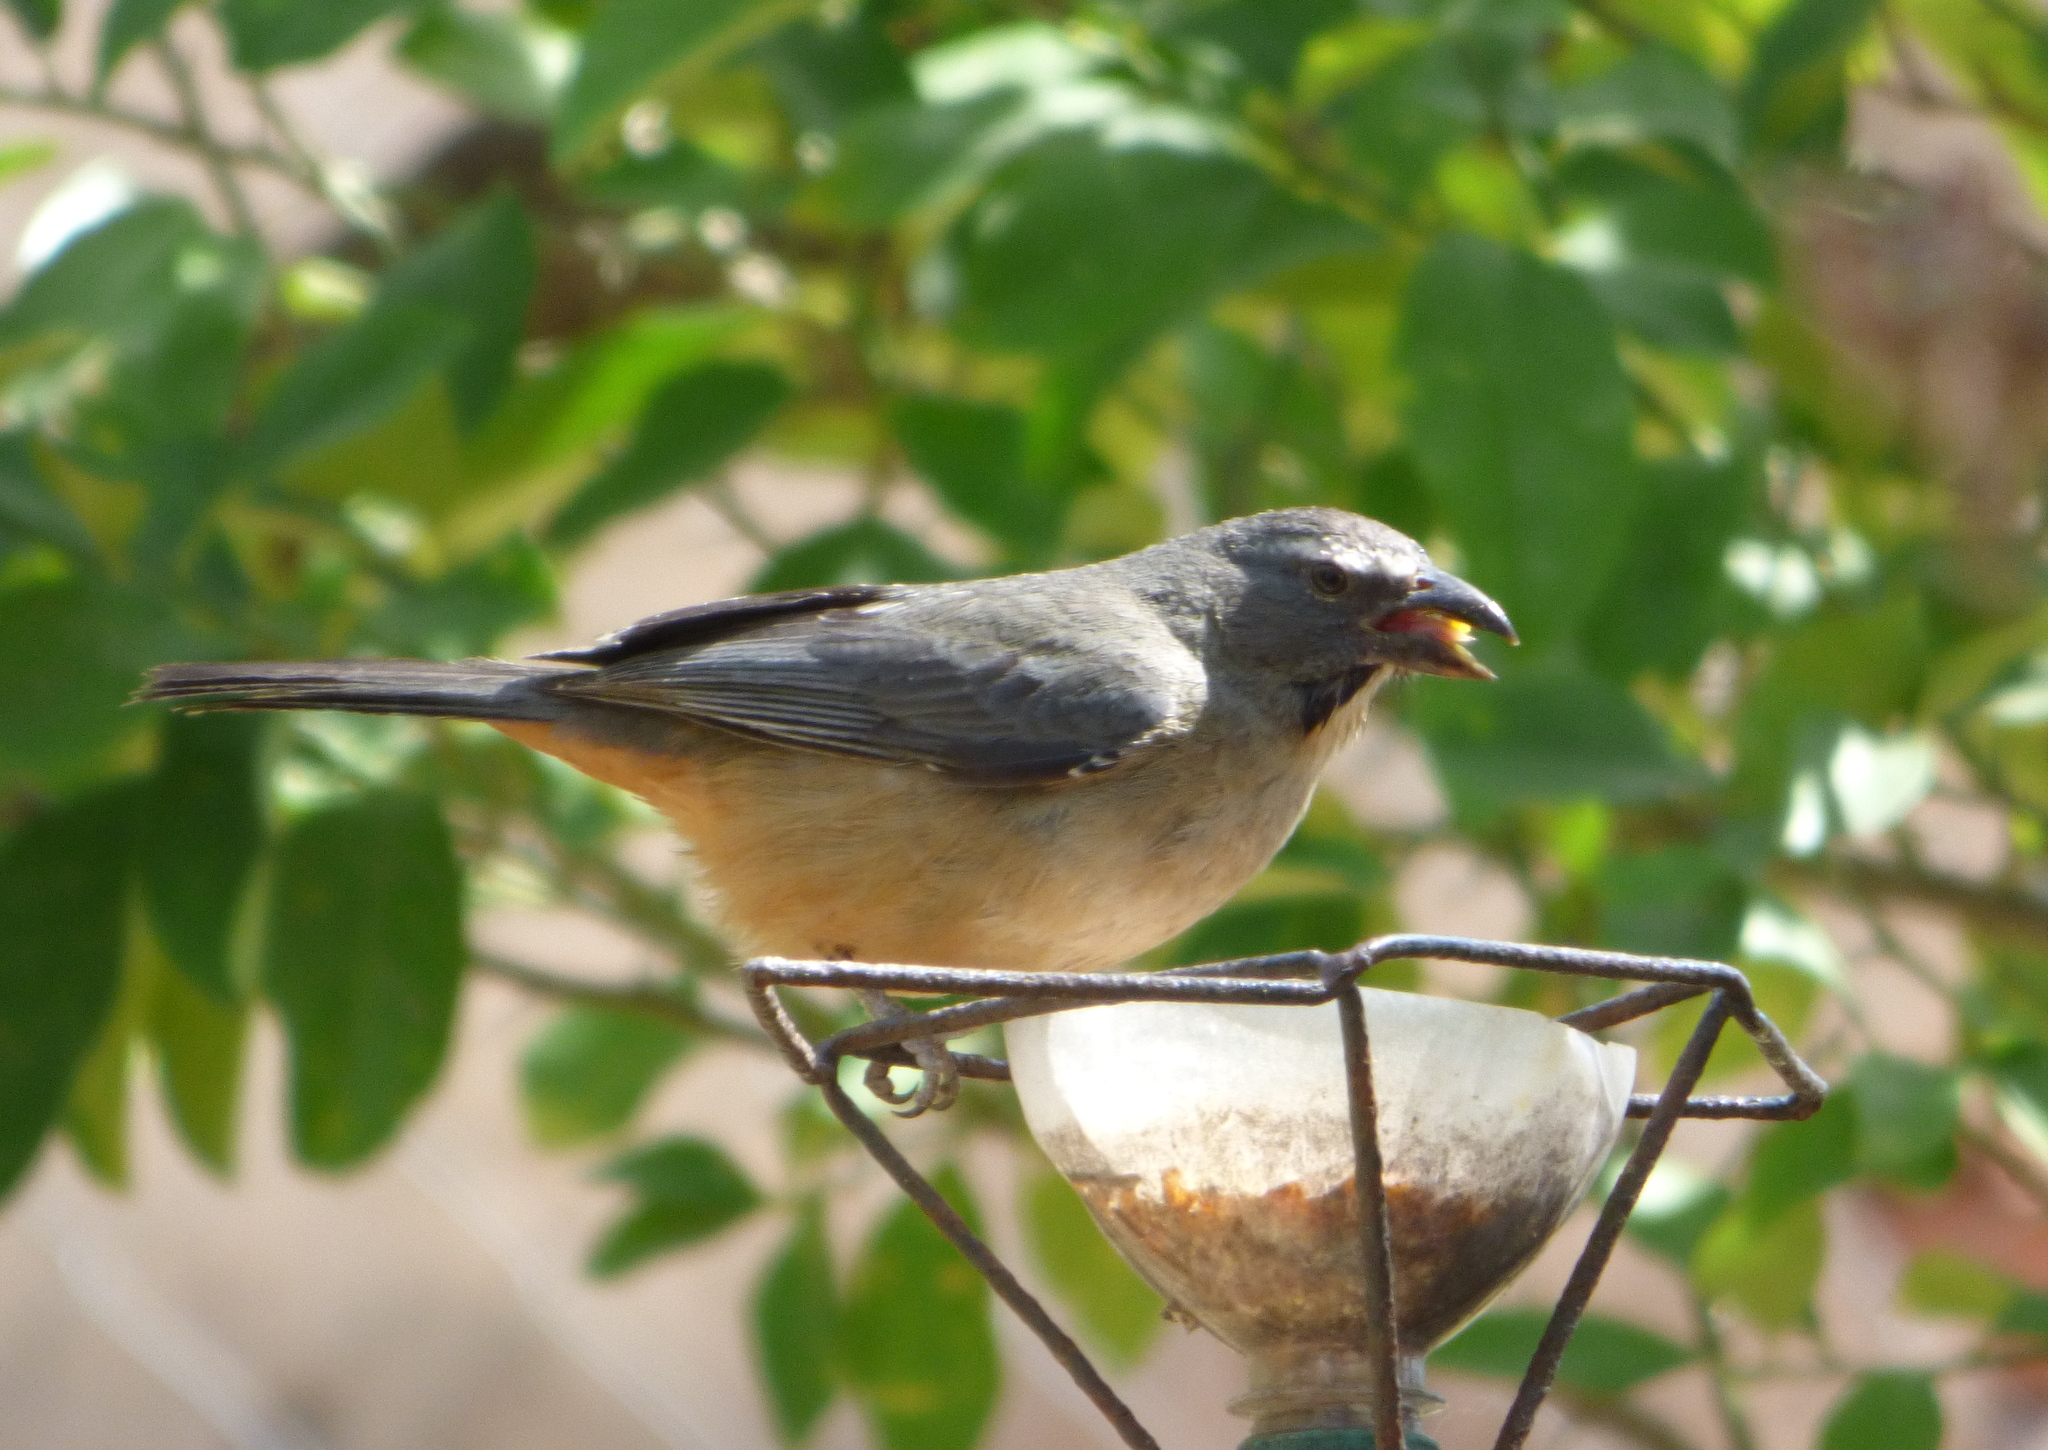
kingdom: Animalia
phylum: Chordata
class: Aves
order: Passeriformes
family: Thraupidae
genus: Saltator
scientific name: Saltator coerulescens
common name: Grayish saltator
